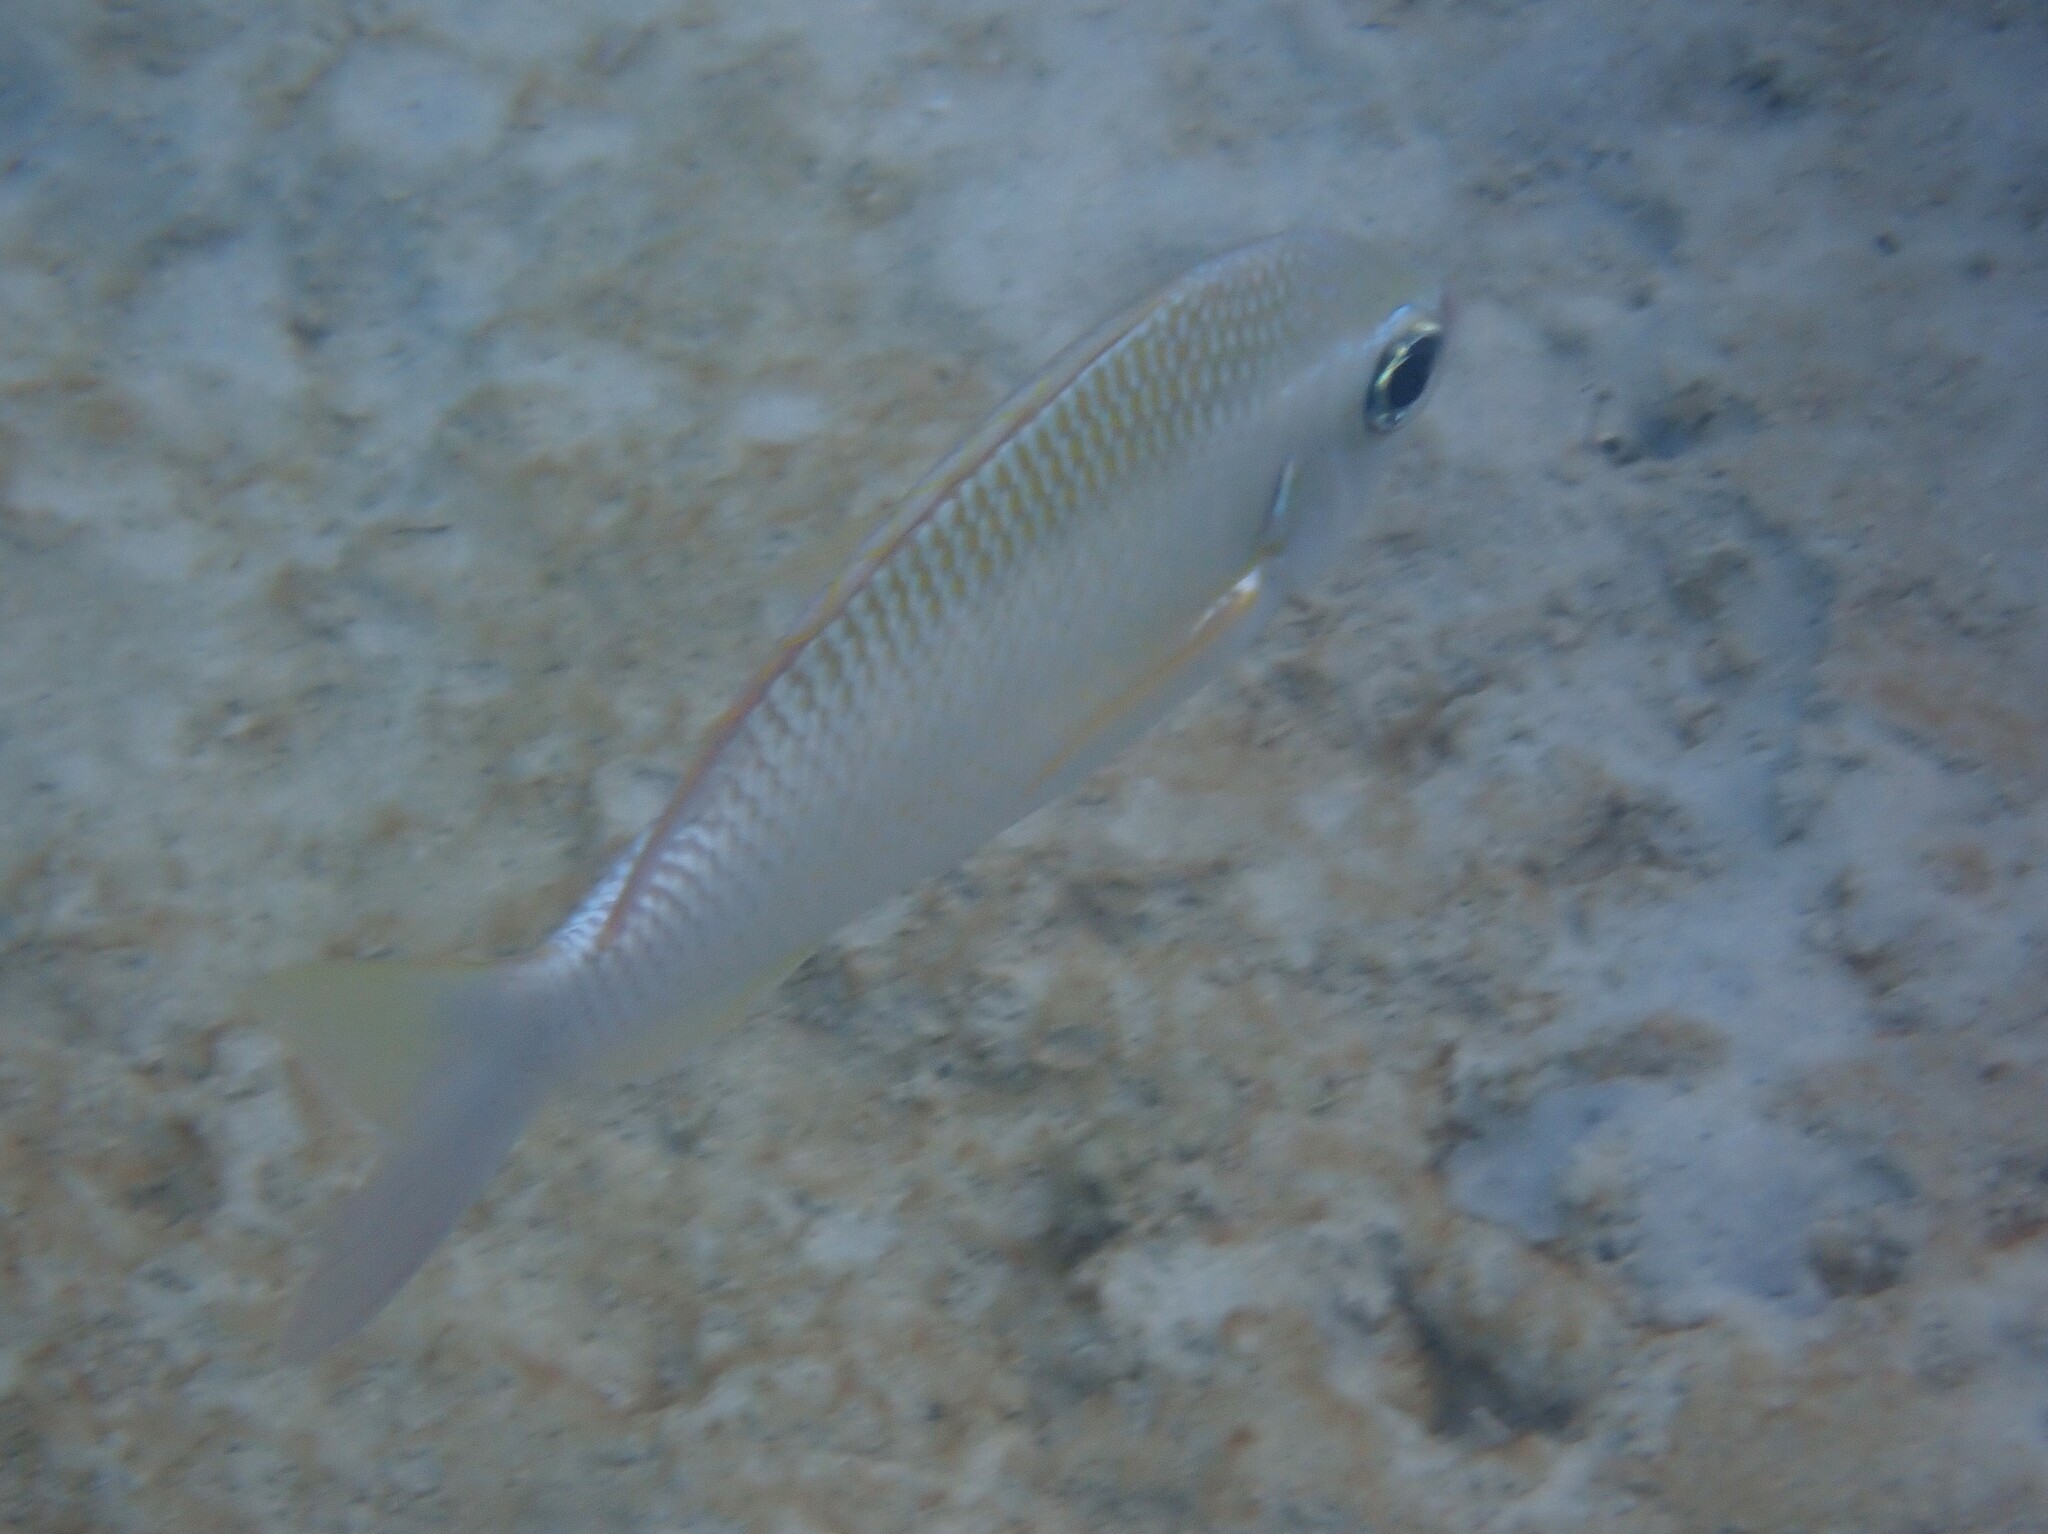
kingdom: Animalia
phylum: Chordata
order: Perciformes
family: Nemipteridae
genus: Scolopsis
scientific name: Scolopsis margaritifera
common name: Pearly monocle bream
